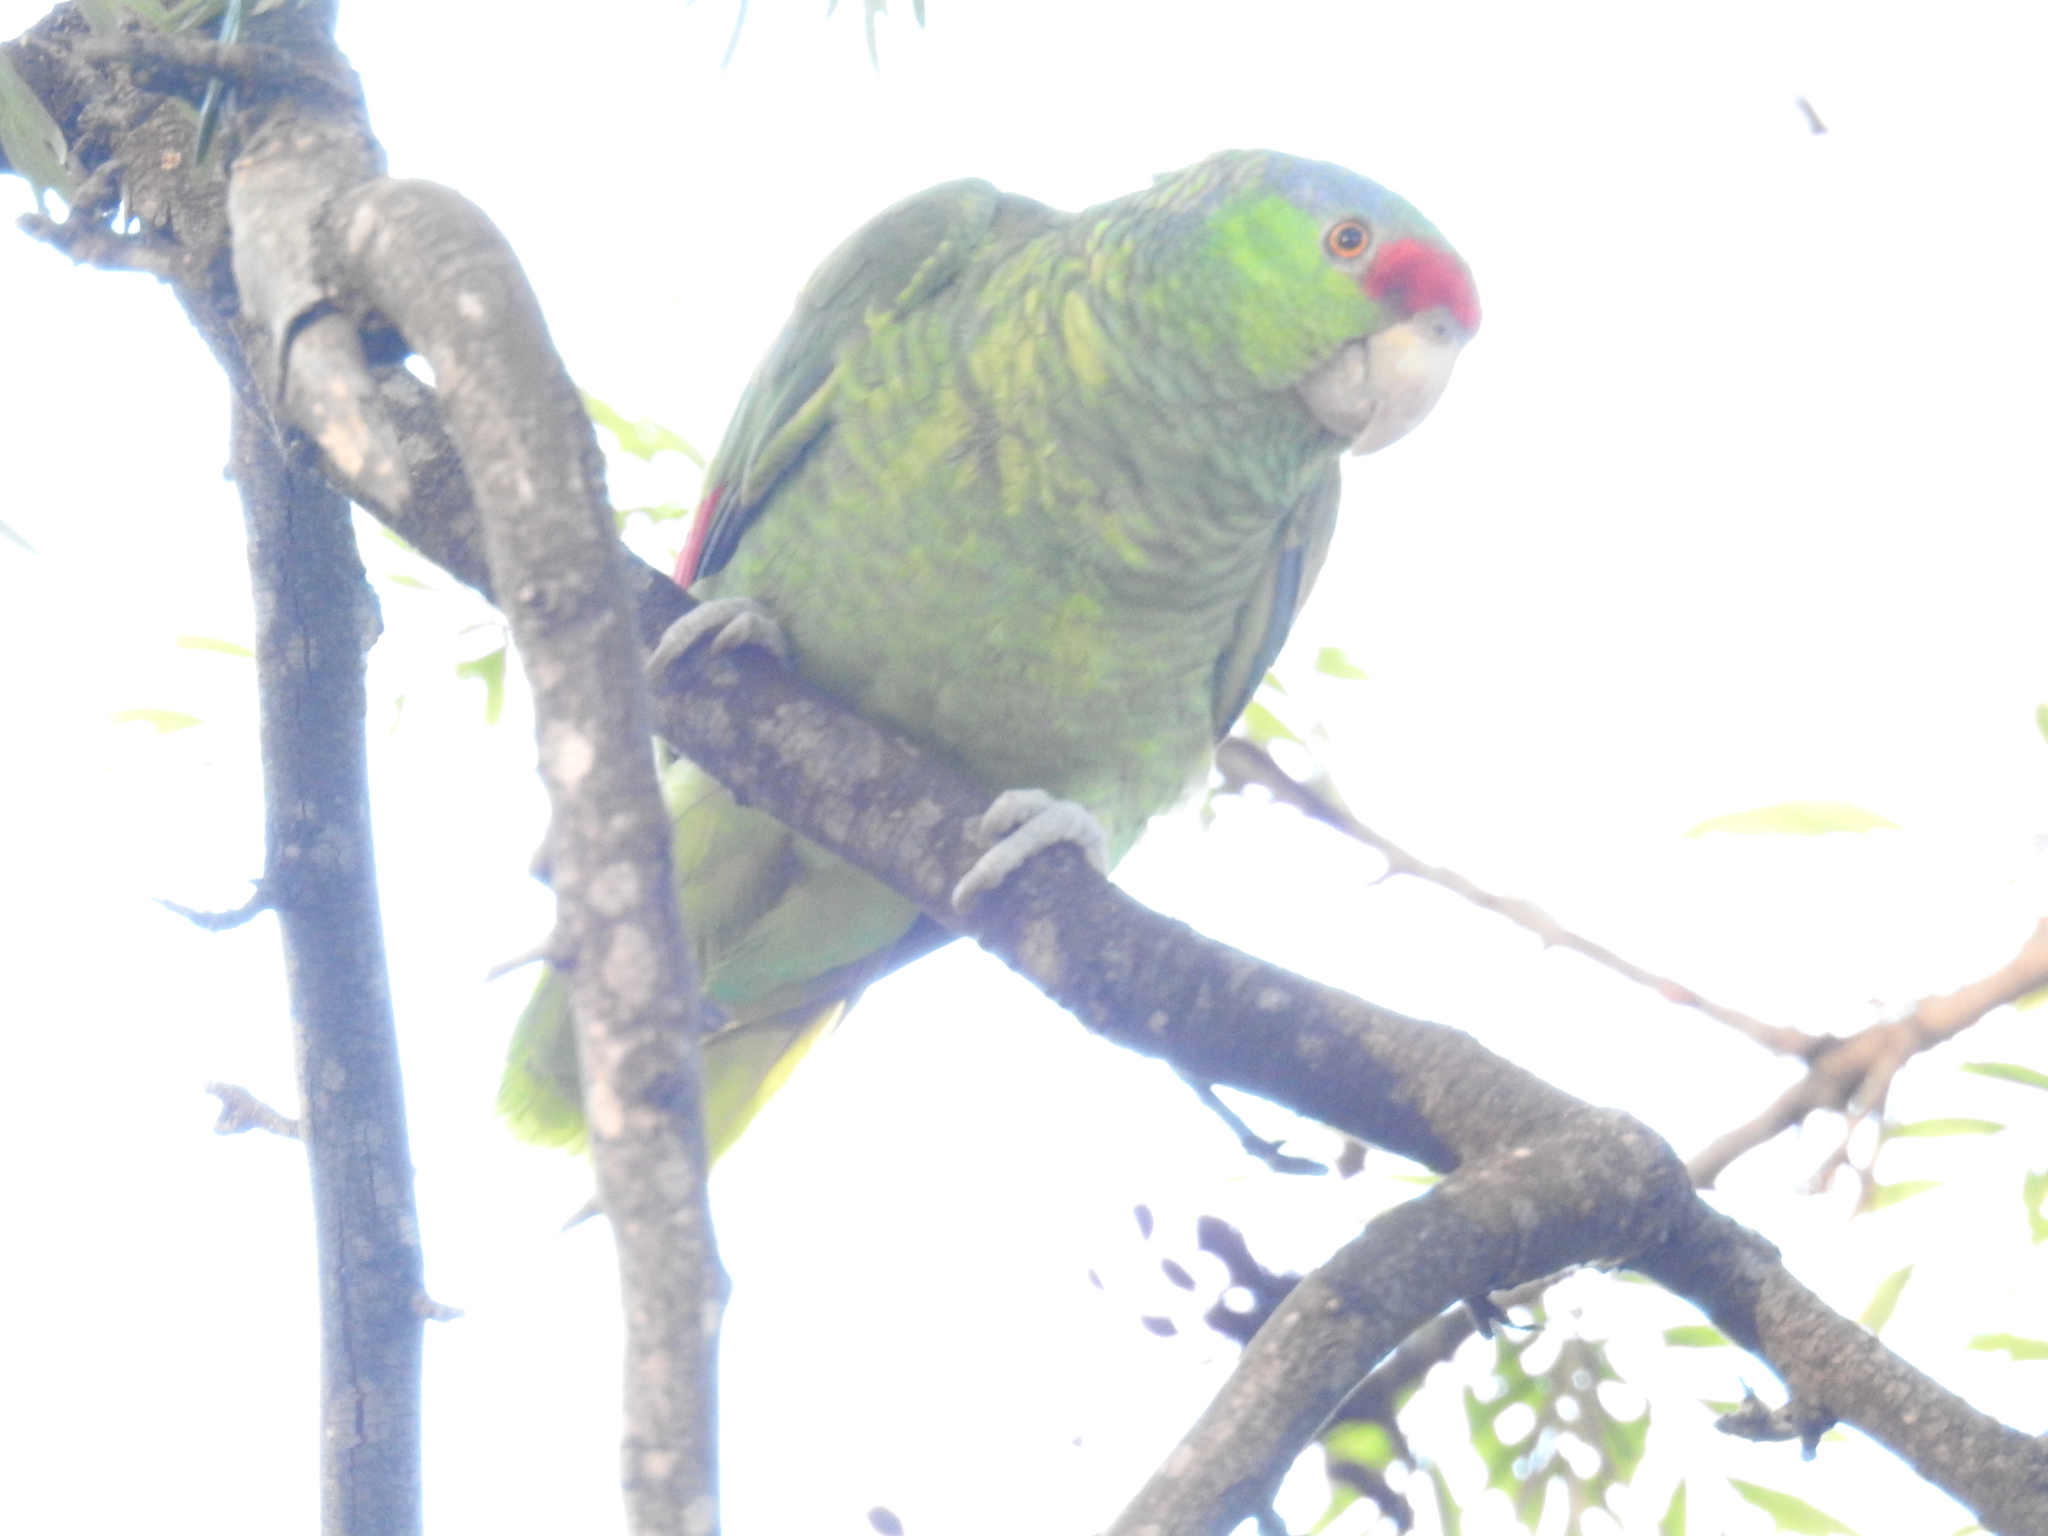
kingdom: Animalia
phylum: Chordata
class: Aves
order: Psittaciformes
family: Psittacidae
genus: Amazona
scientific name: Amazona
